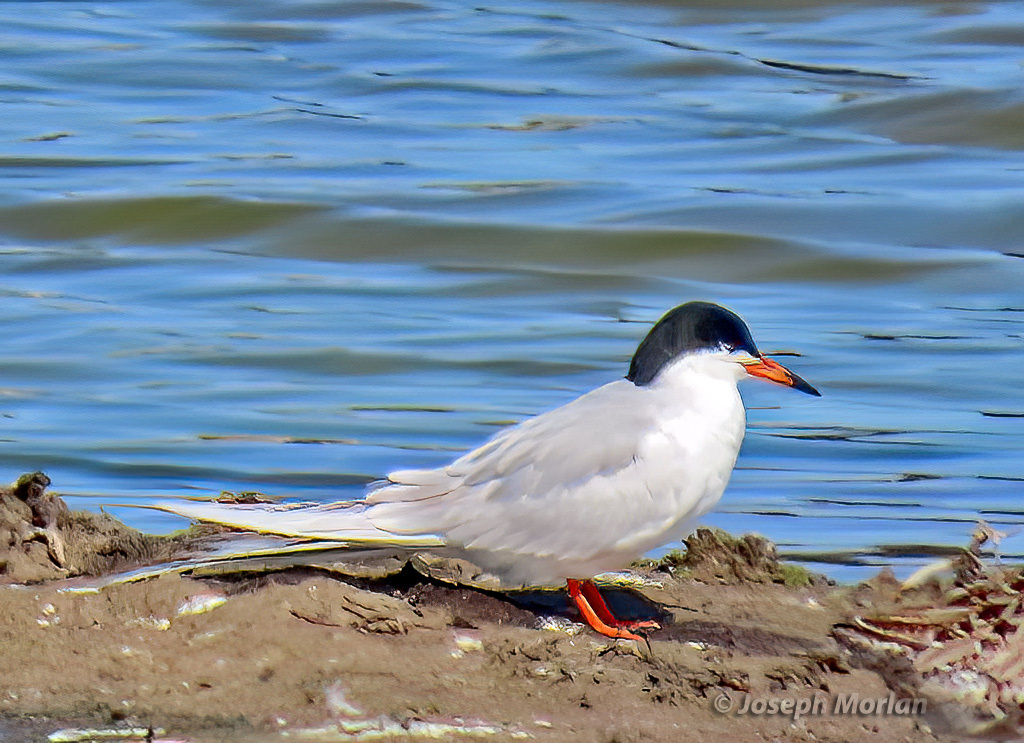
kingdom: Animalia
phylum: Chordata
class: Aves
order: Charadriiformes
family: Laridae
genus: Sterna
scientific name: Sterna forsteri
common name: Forster's tern
